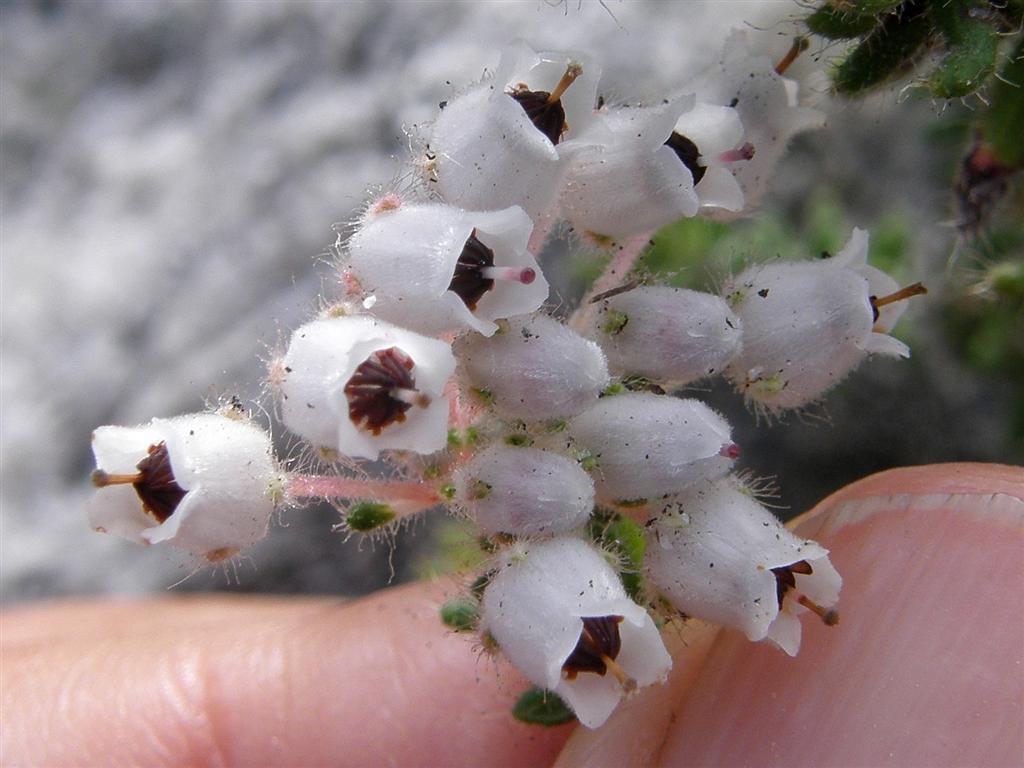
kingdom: Plantae
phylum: Tracheophyta
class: Magnoliopsida
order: Ericales
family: Ericaceae
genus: Erica
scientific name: Erica pannosa
